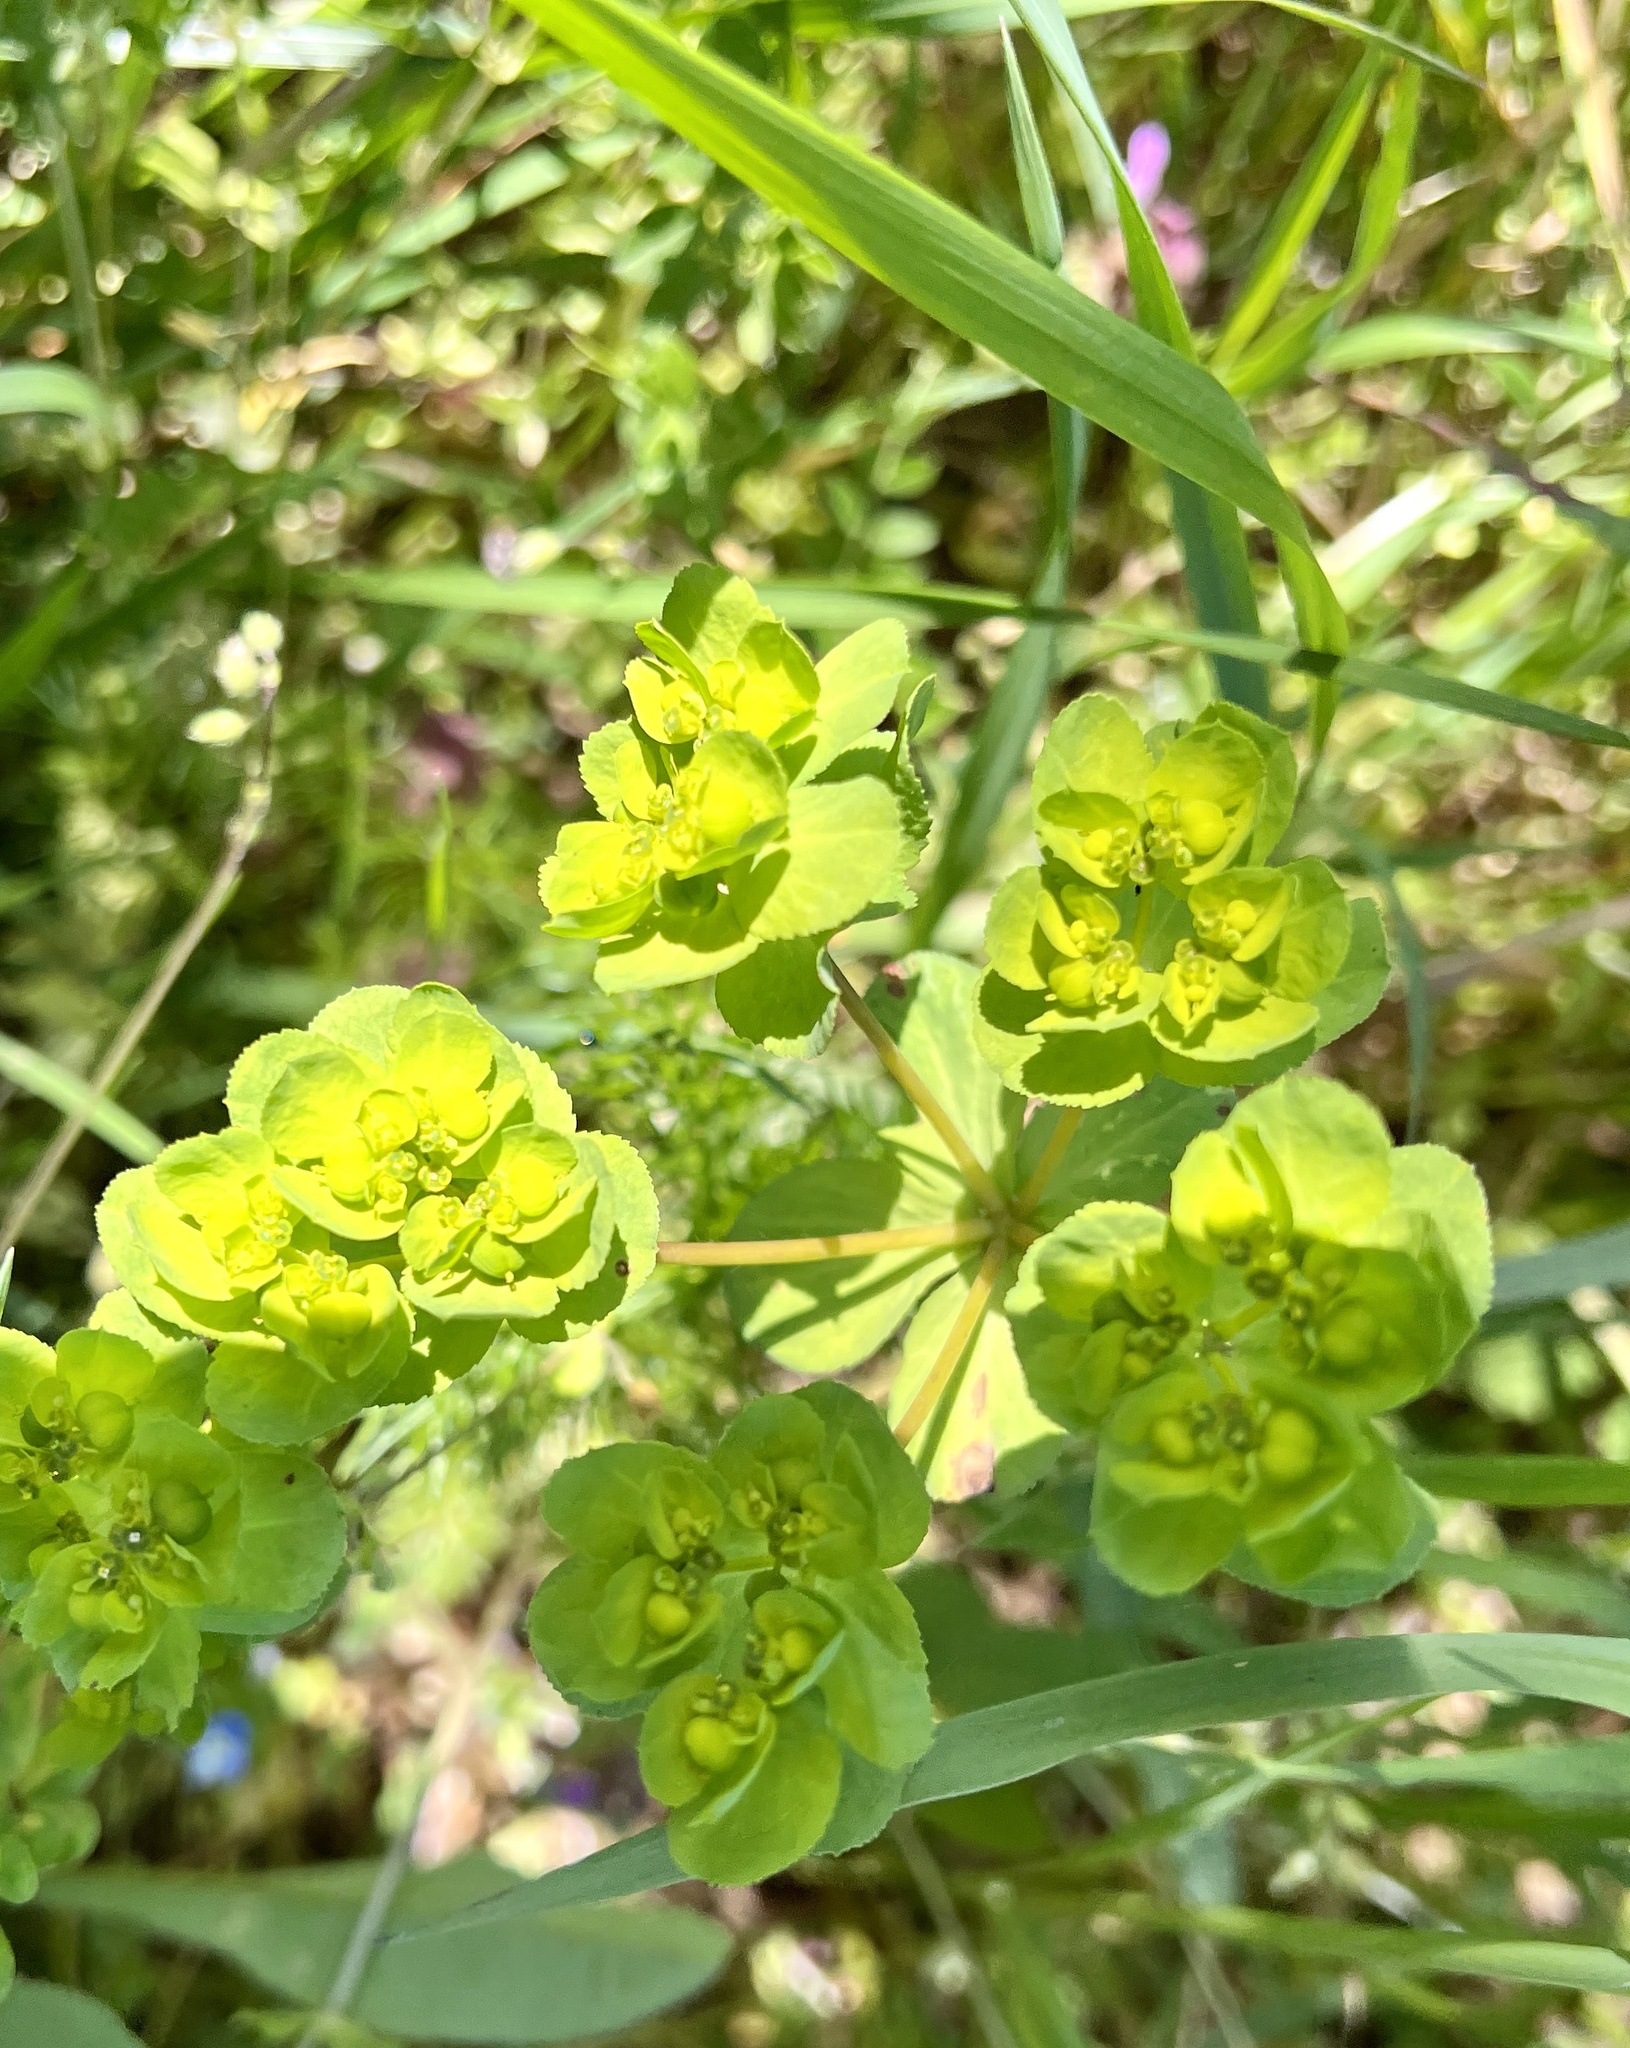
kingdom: Plantae
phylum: Tracheophyta
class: Magnoliopsida
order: Malpighiales
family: Euphorbiaceae
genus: Euphorbia
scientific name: Euphorbia helioscopia
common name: Sun spurge
